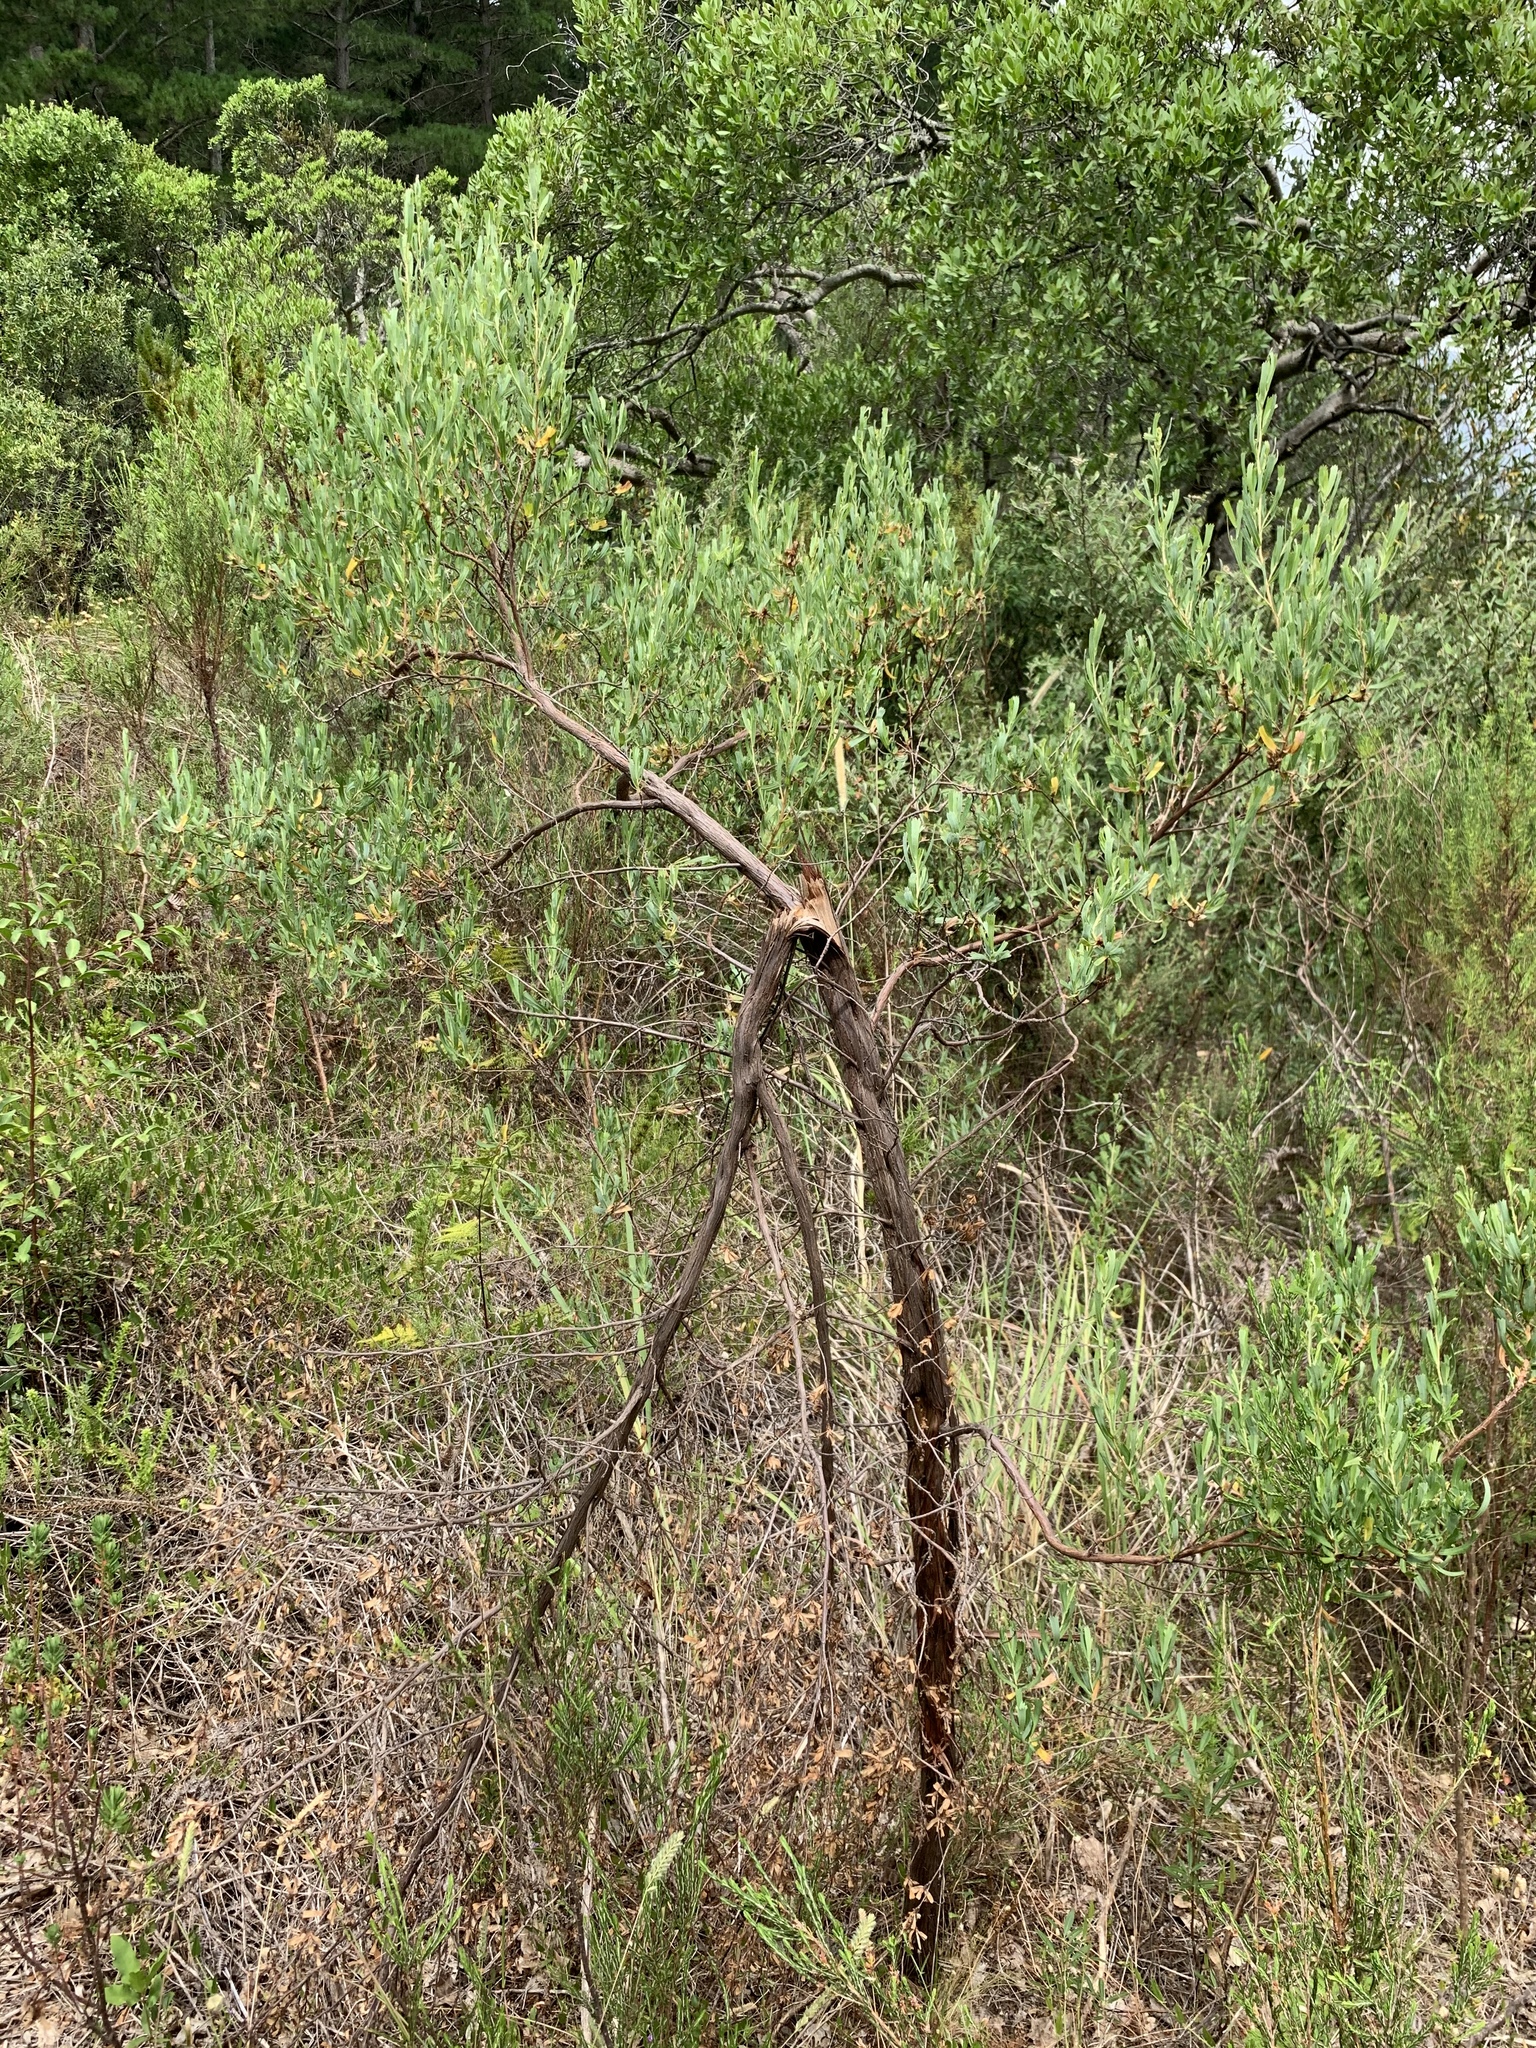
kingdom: Plantae
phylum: Tracheophyta
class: Magnoliopsida
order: Rosales
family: Rosaceae
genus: Cliffortia
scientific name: Cliffortia cuneata
